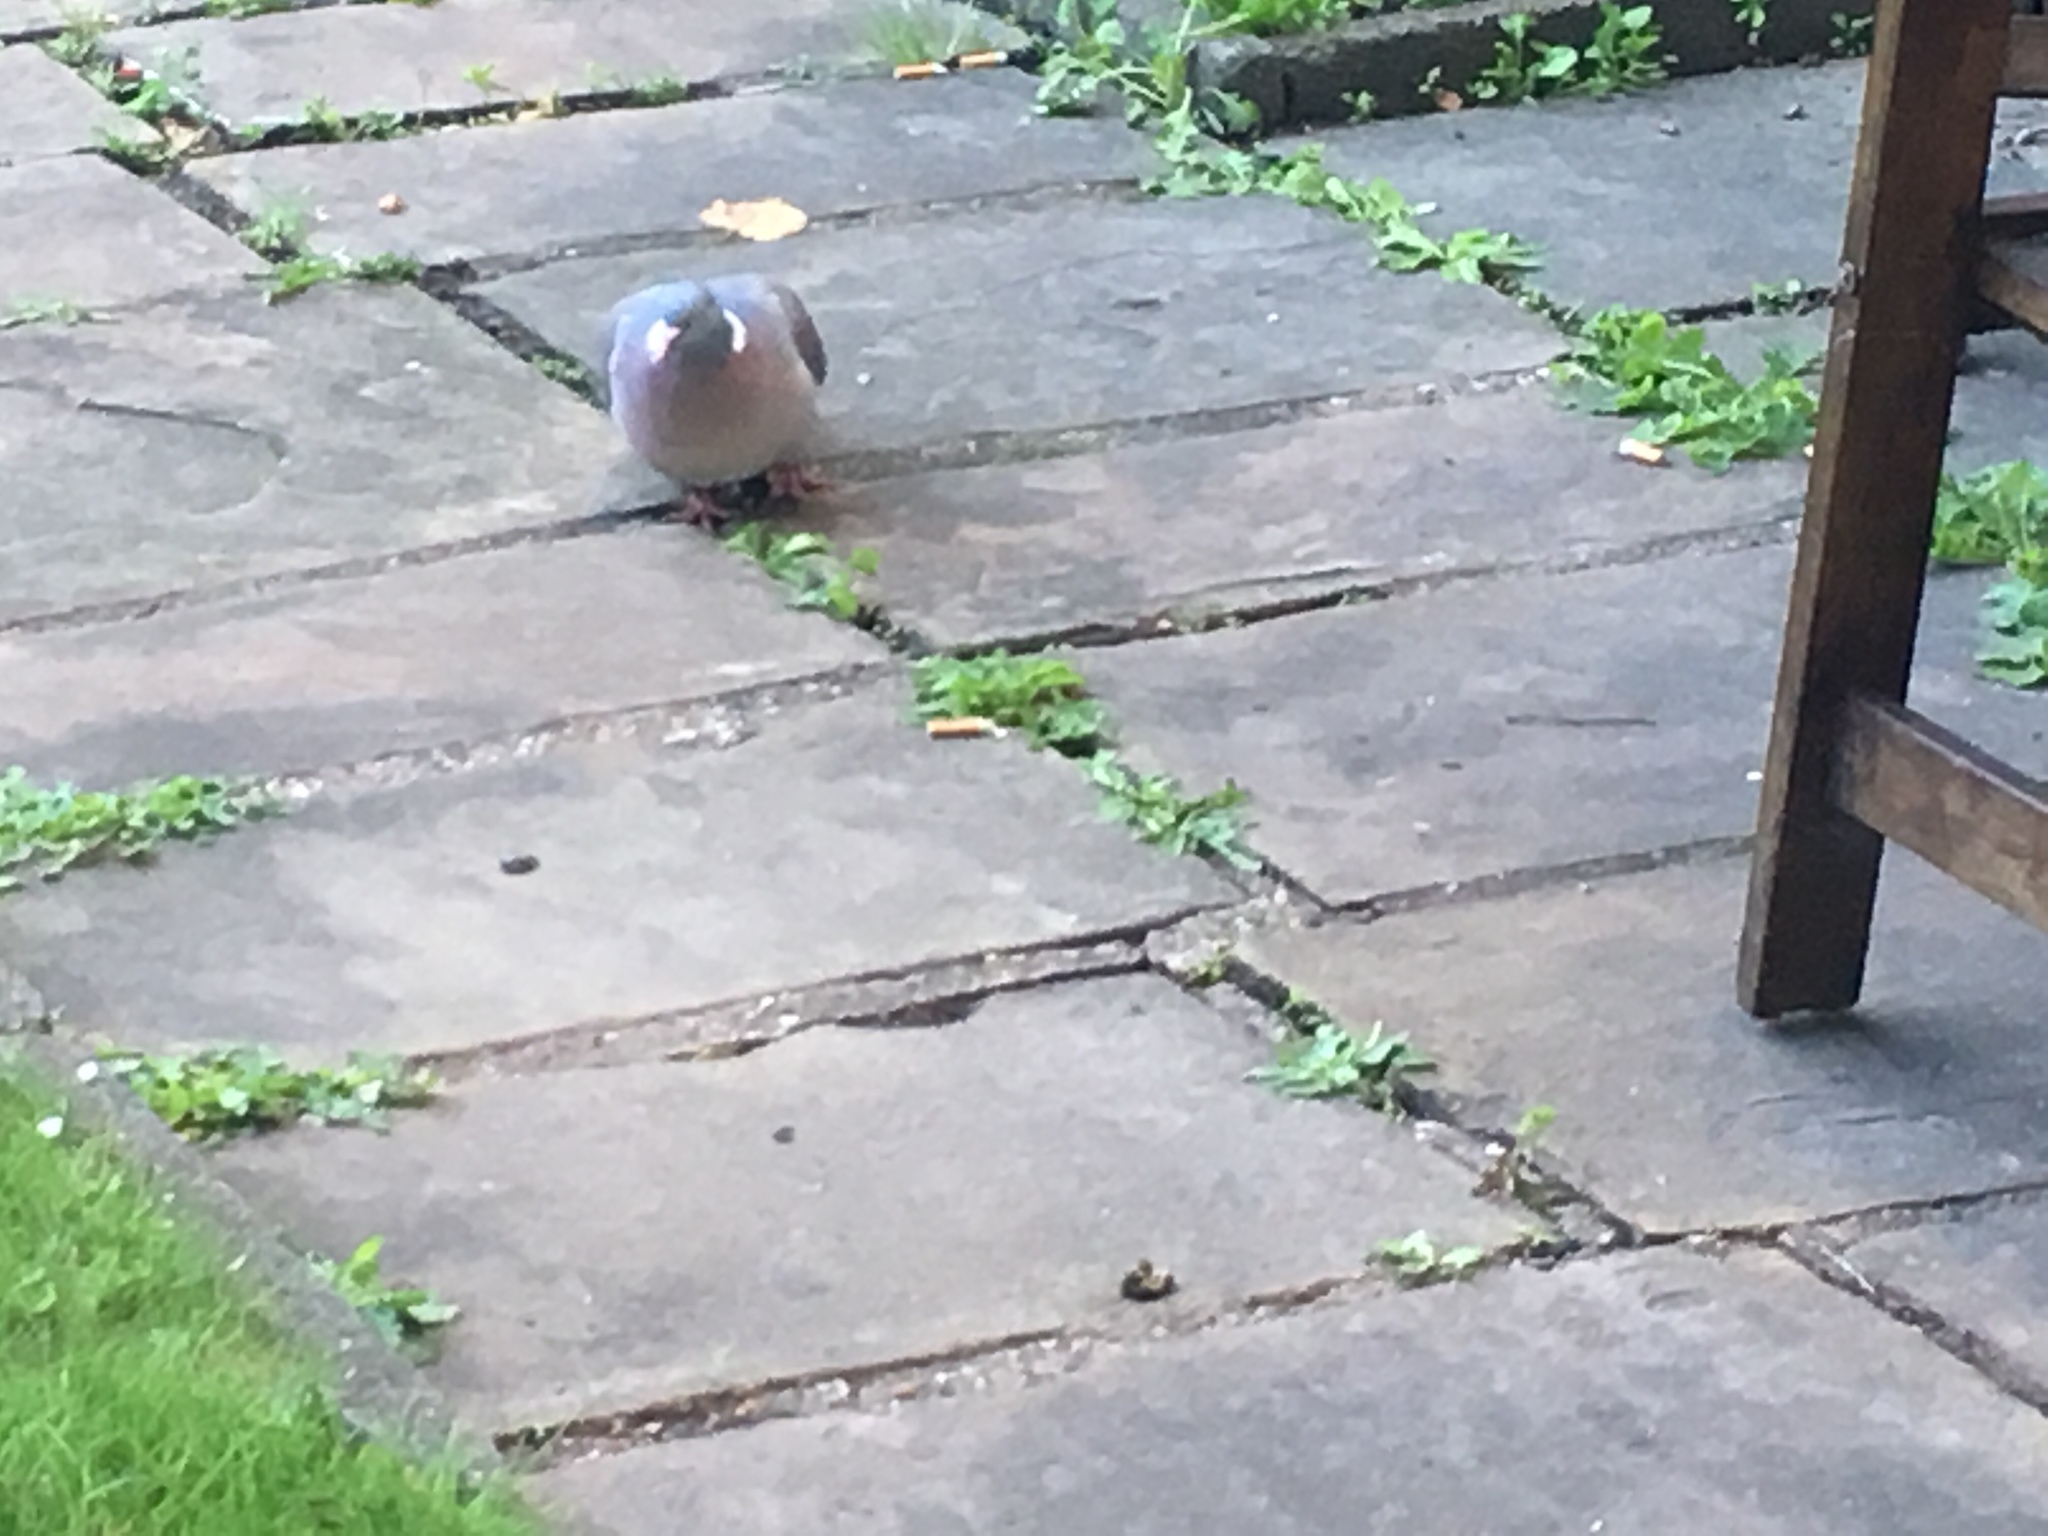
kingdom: Animalia
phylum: Chordata
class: Aves
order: Columbiformes
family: Columbidae
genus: Columba
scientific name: Columba palumbus
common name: Common wood pigeon
